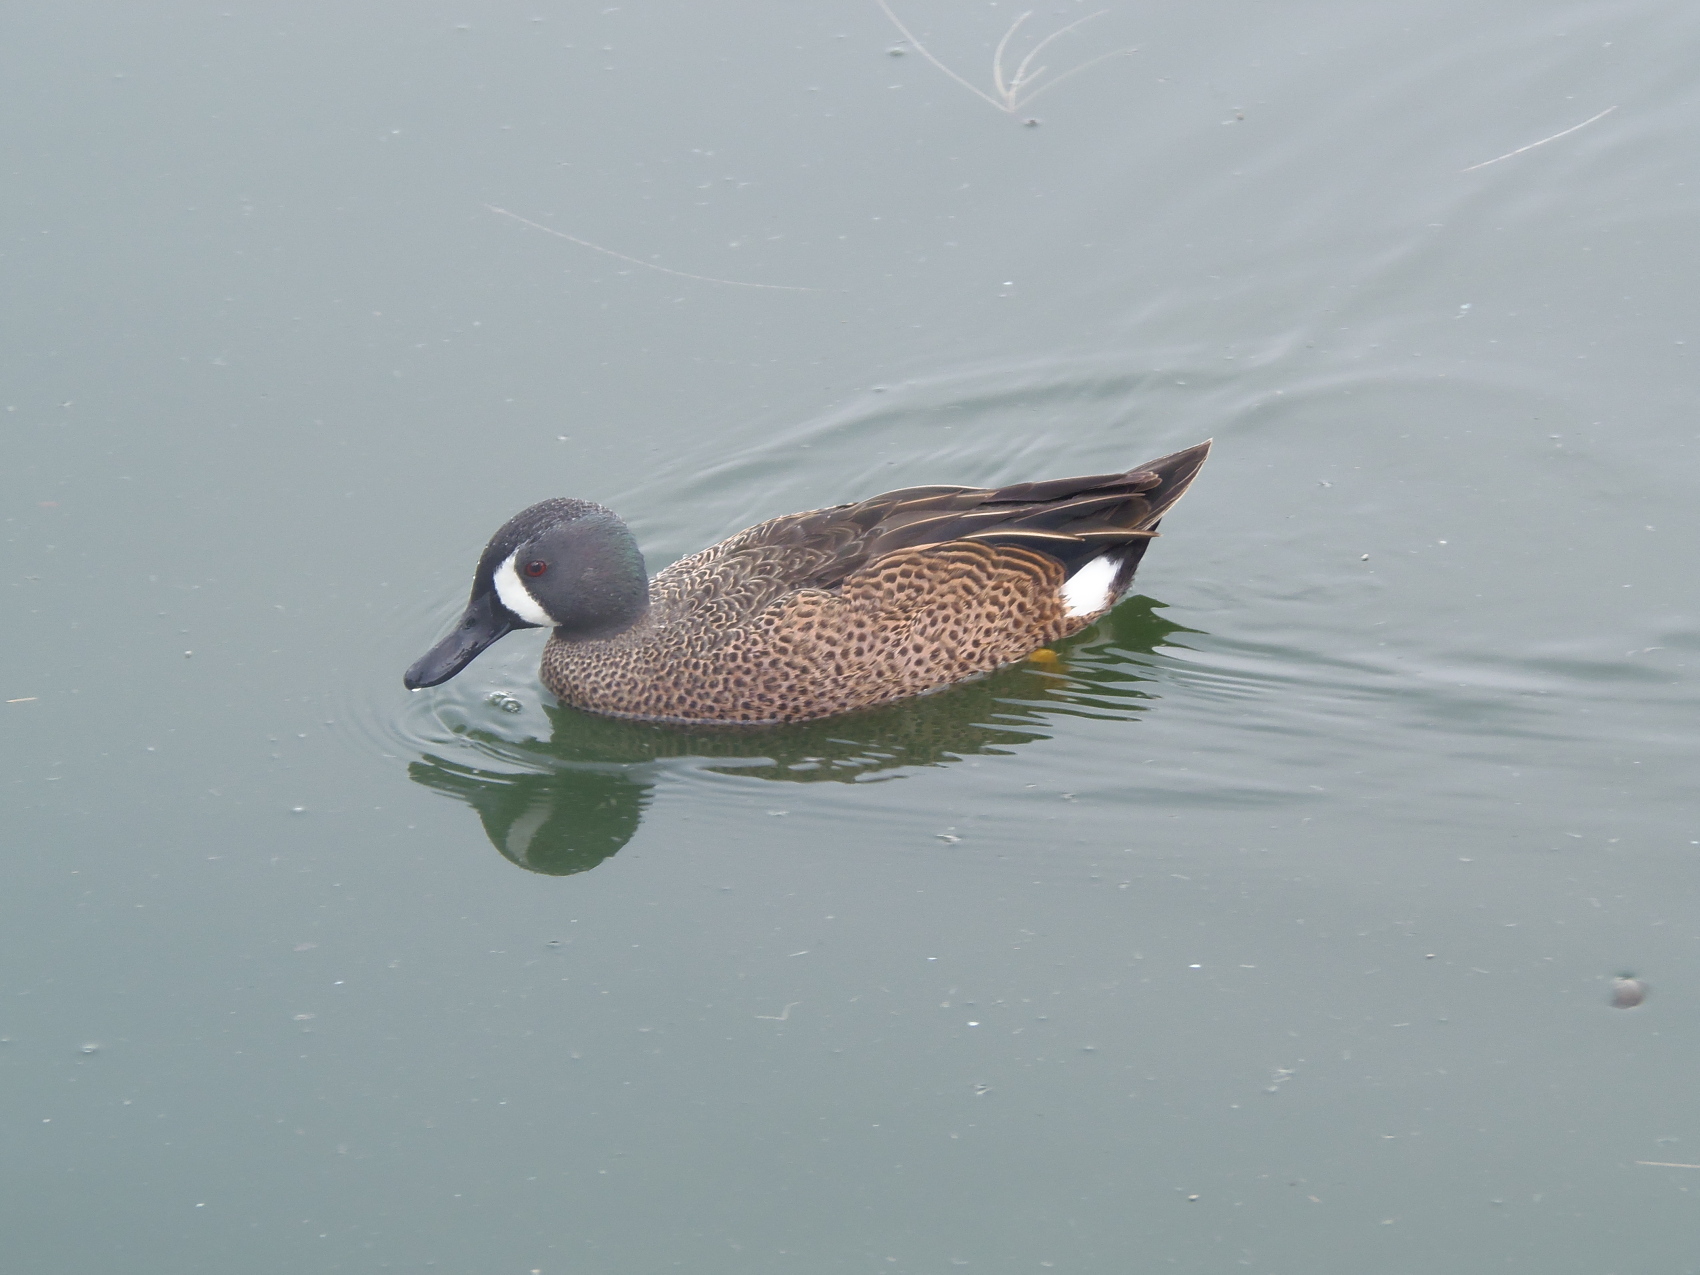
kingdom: Animalia
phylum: Chordata
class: Aves
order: Anseriformes
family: Anatidae
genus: Spatula
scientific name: Spatula discors
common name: Blue-winged teal
